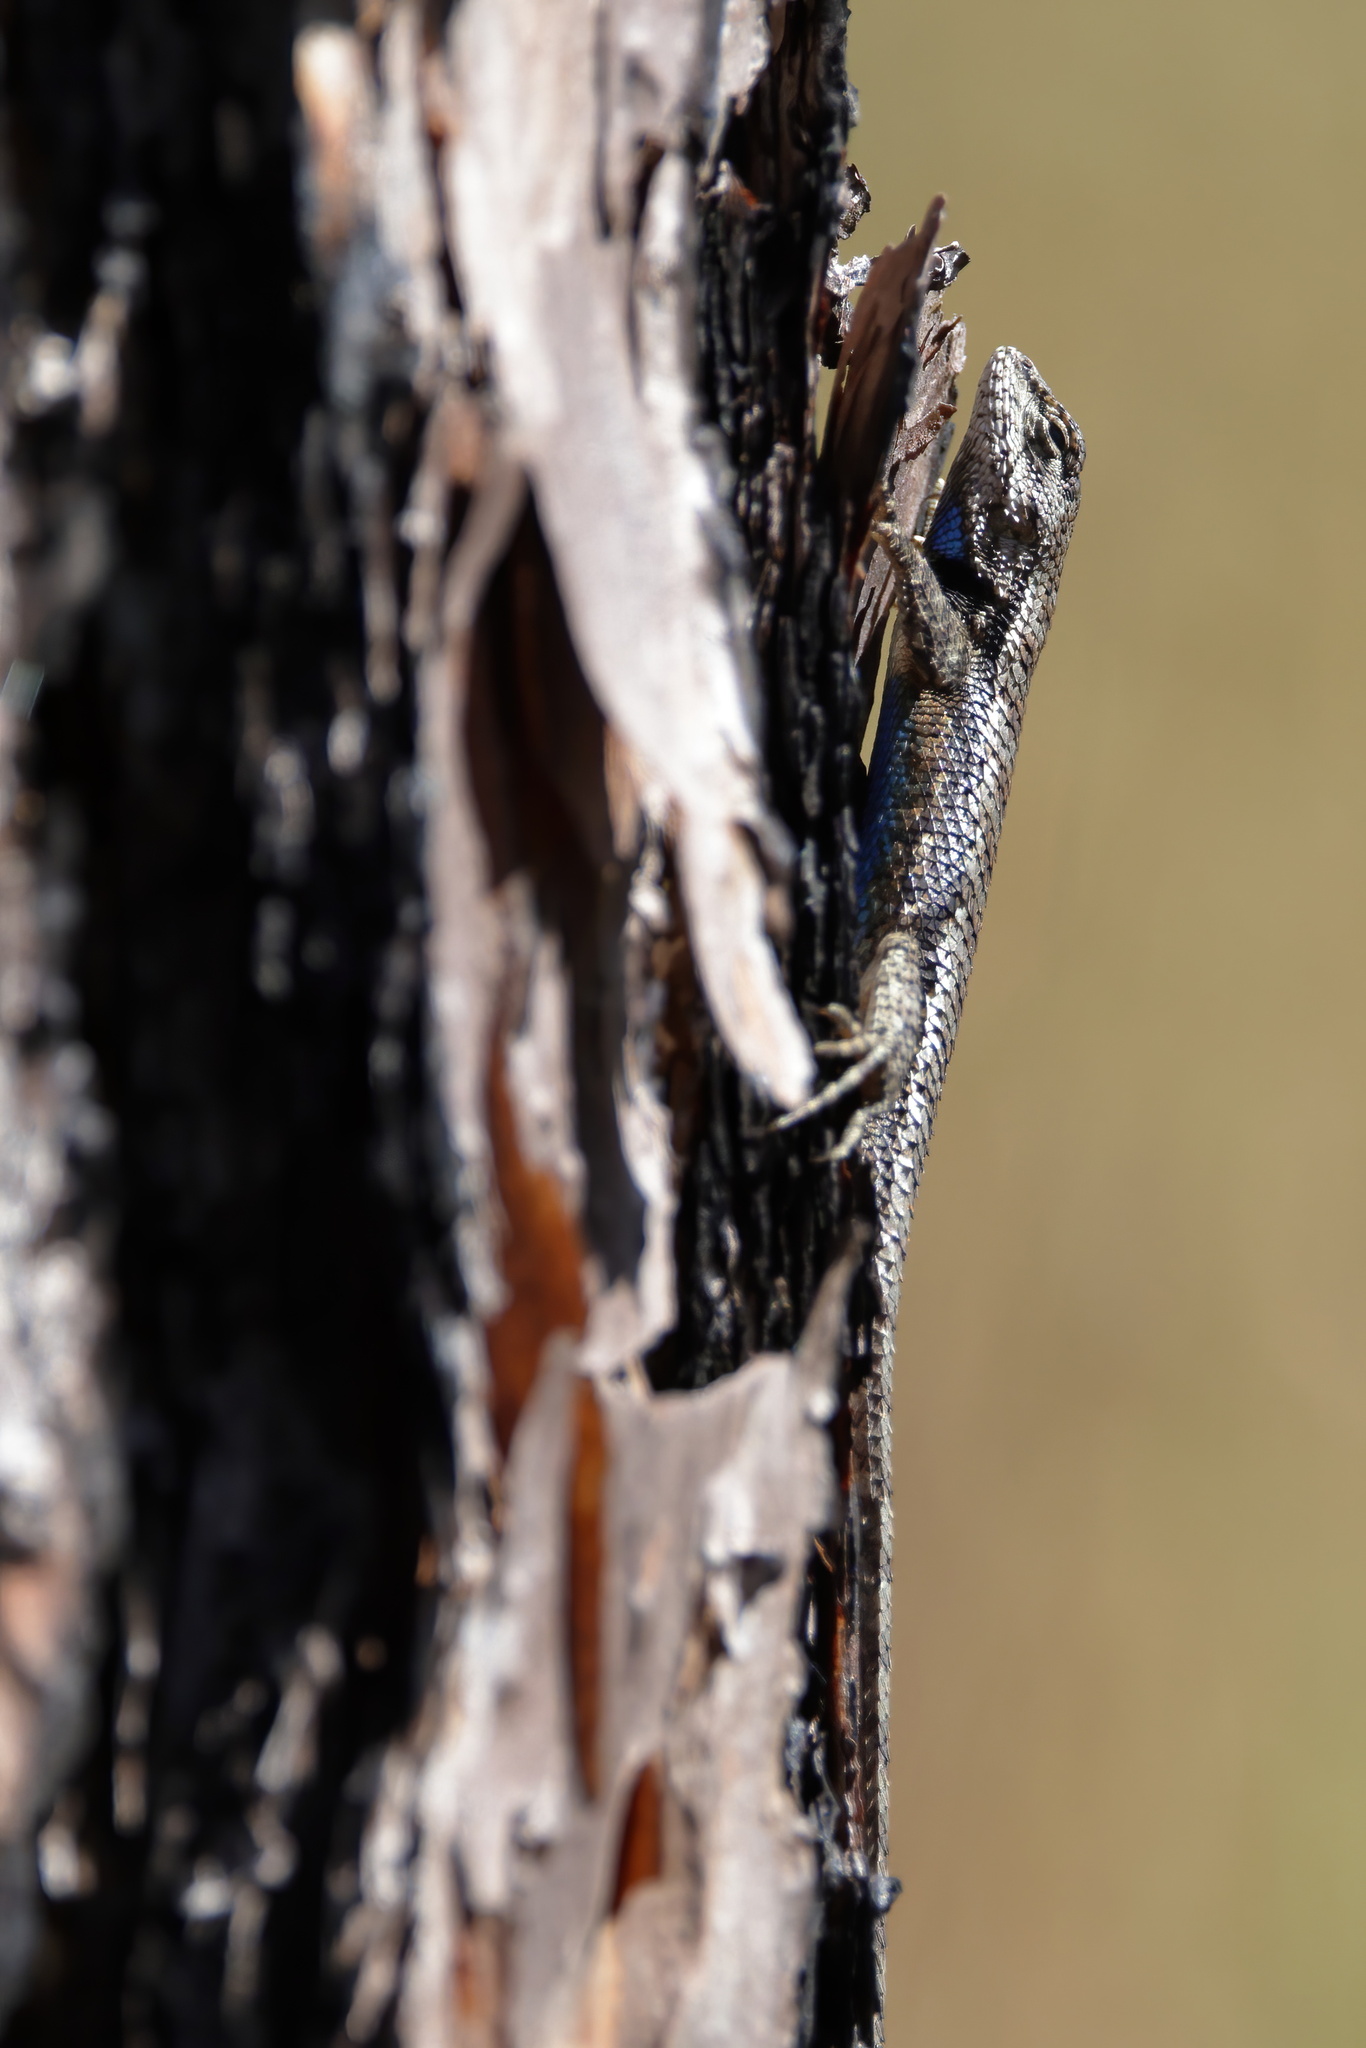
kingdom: Animalia
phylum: Chordata
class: Squamata
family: Phrynosomatidae
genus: Sceloporus
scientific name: Sceloporus undulatus
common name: Eastern fence lizard
